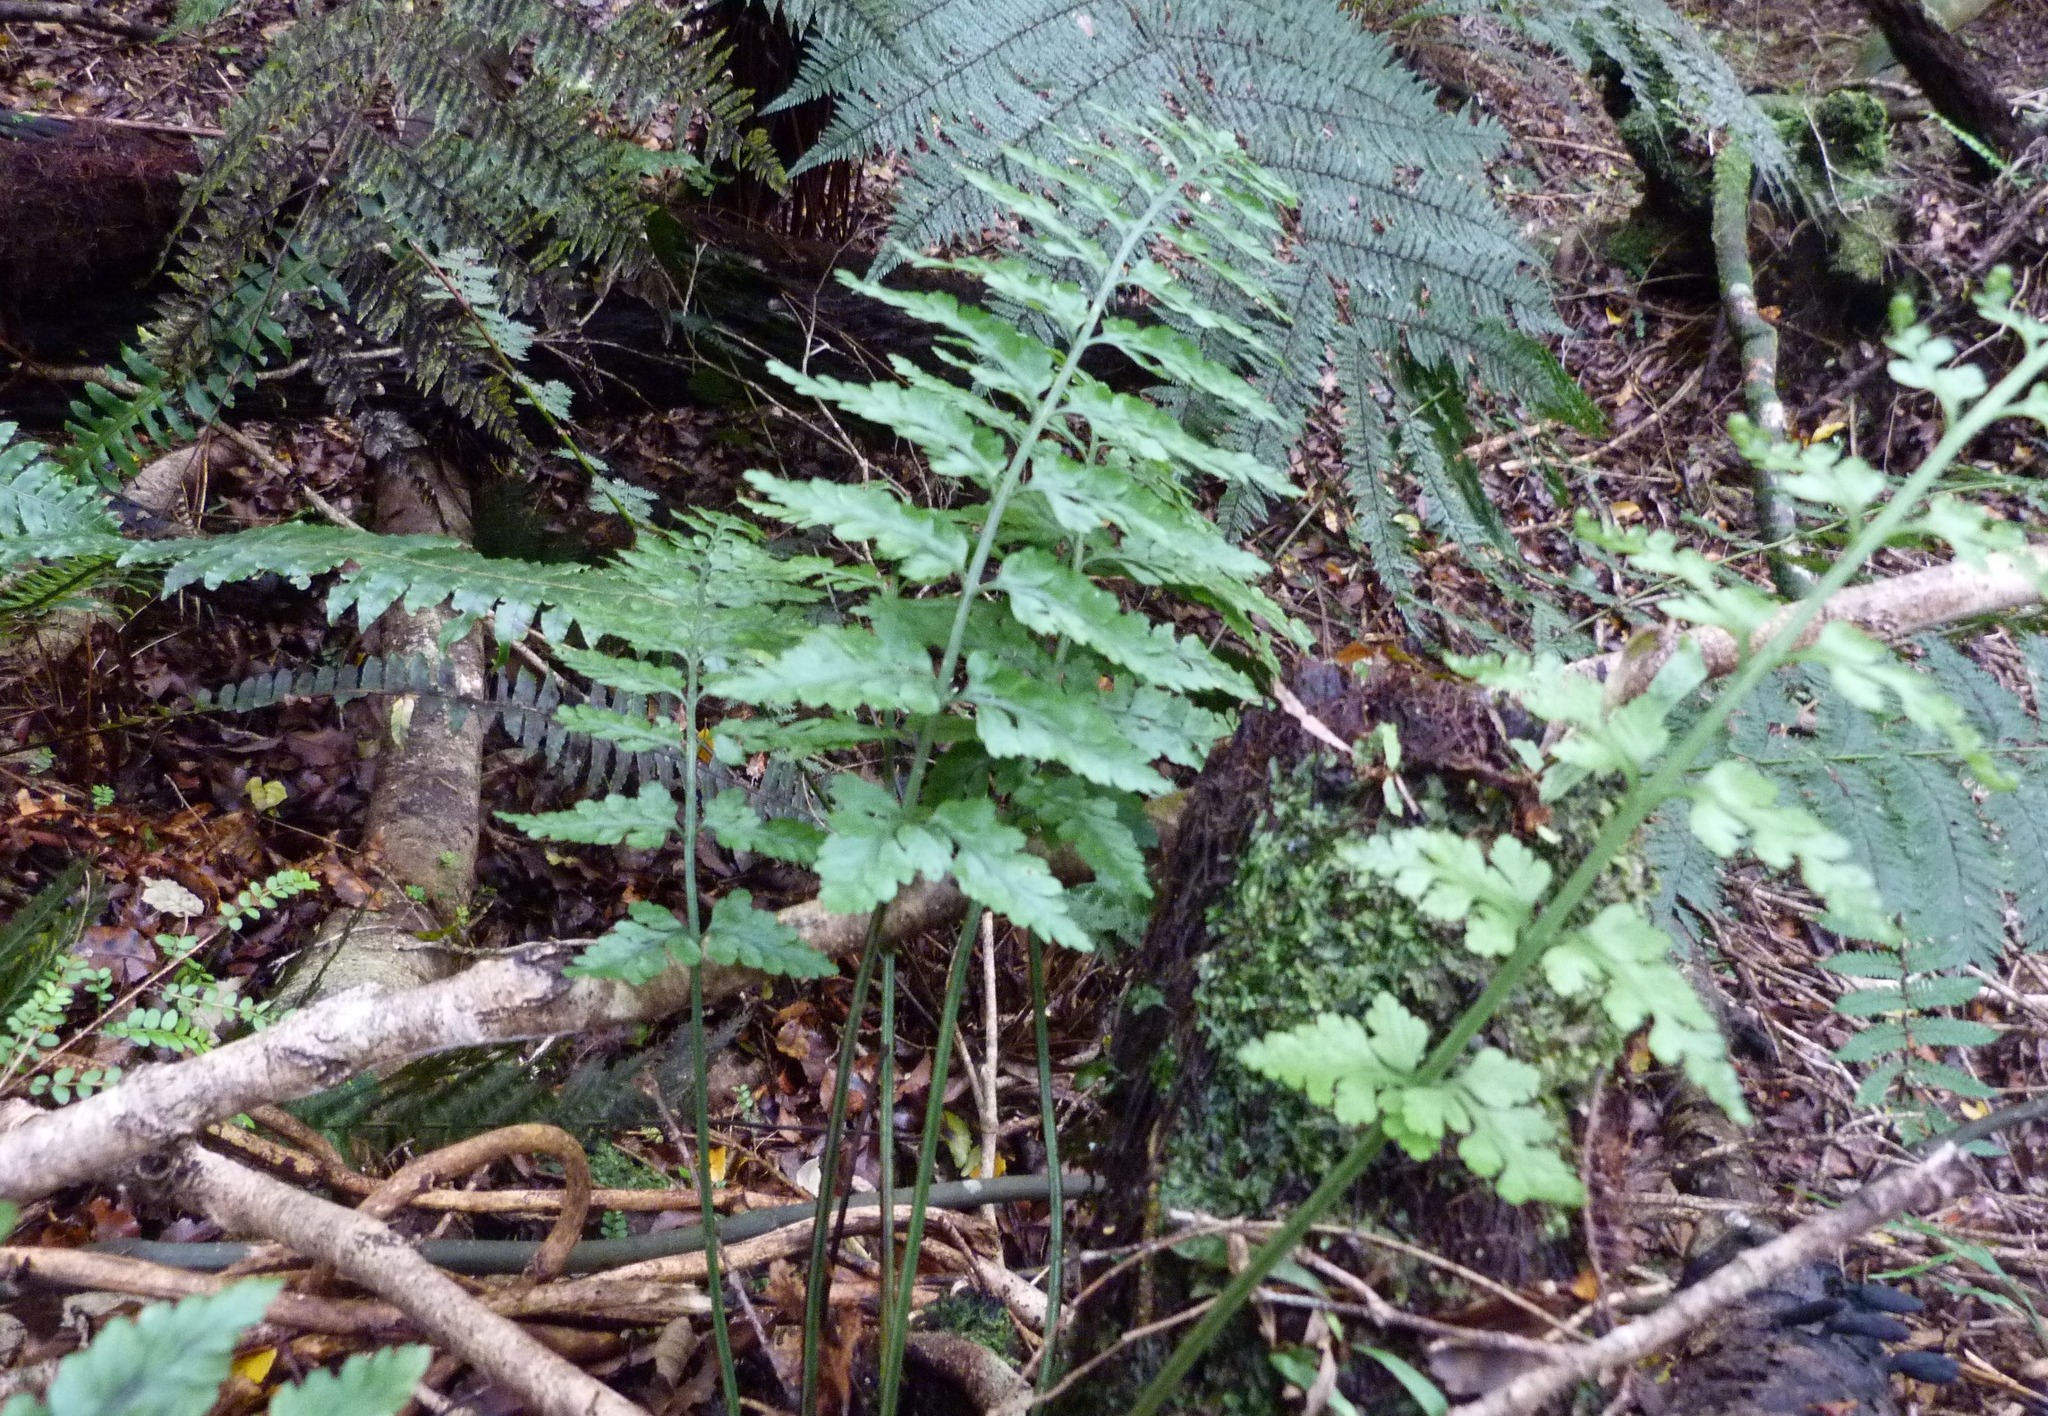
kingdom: Plantae
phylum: Tracheophyta
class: Polypodiopsida
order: Polypodiales
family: Aspleniaceae
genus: Asplenium
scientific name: Asplenium bulbiferum
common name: Mother fern
